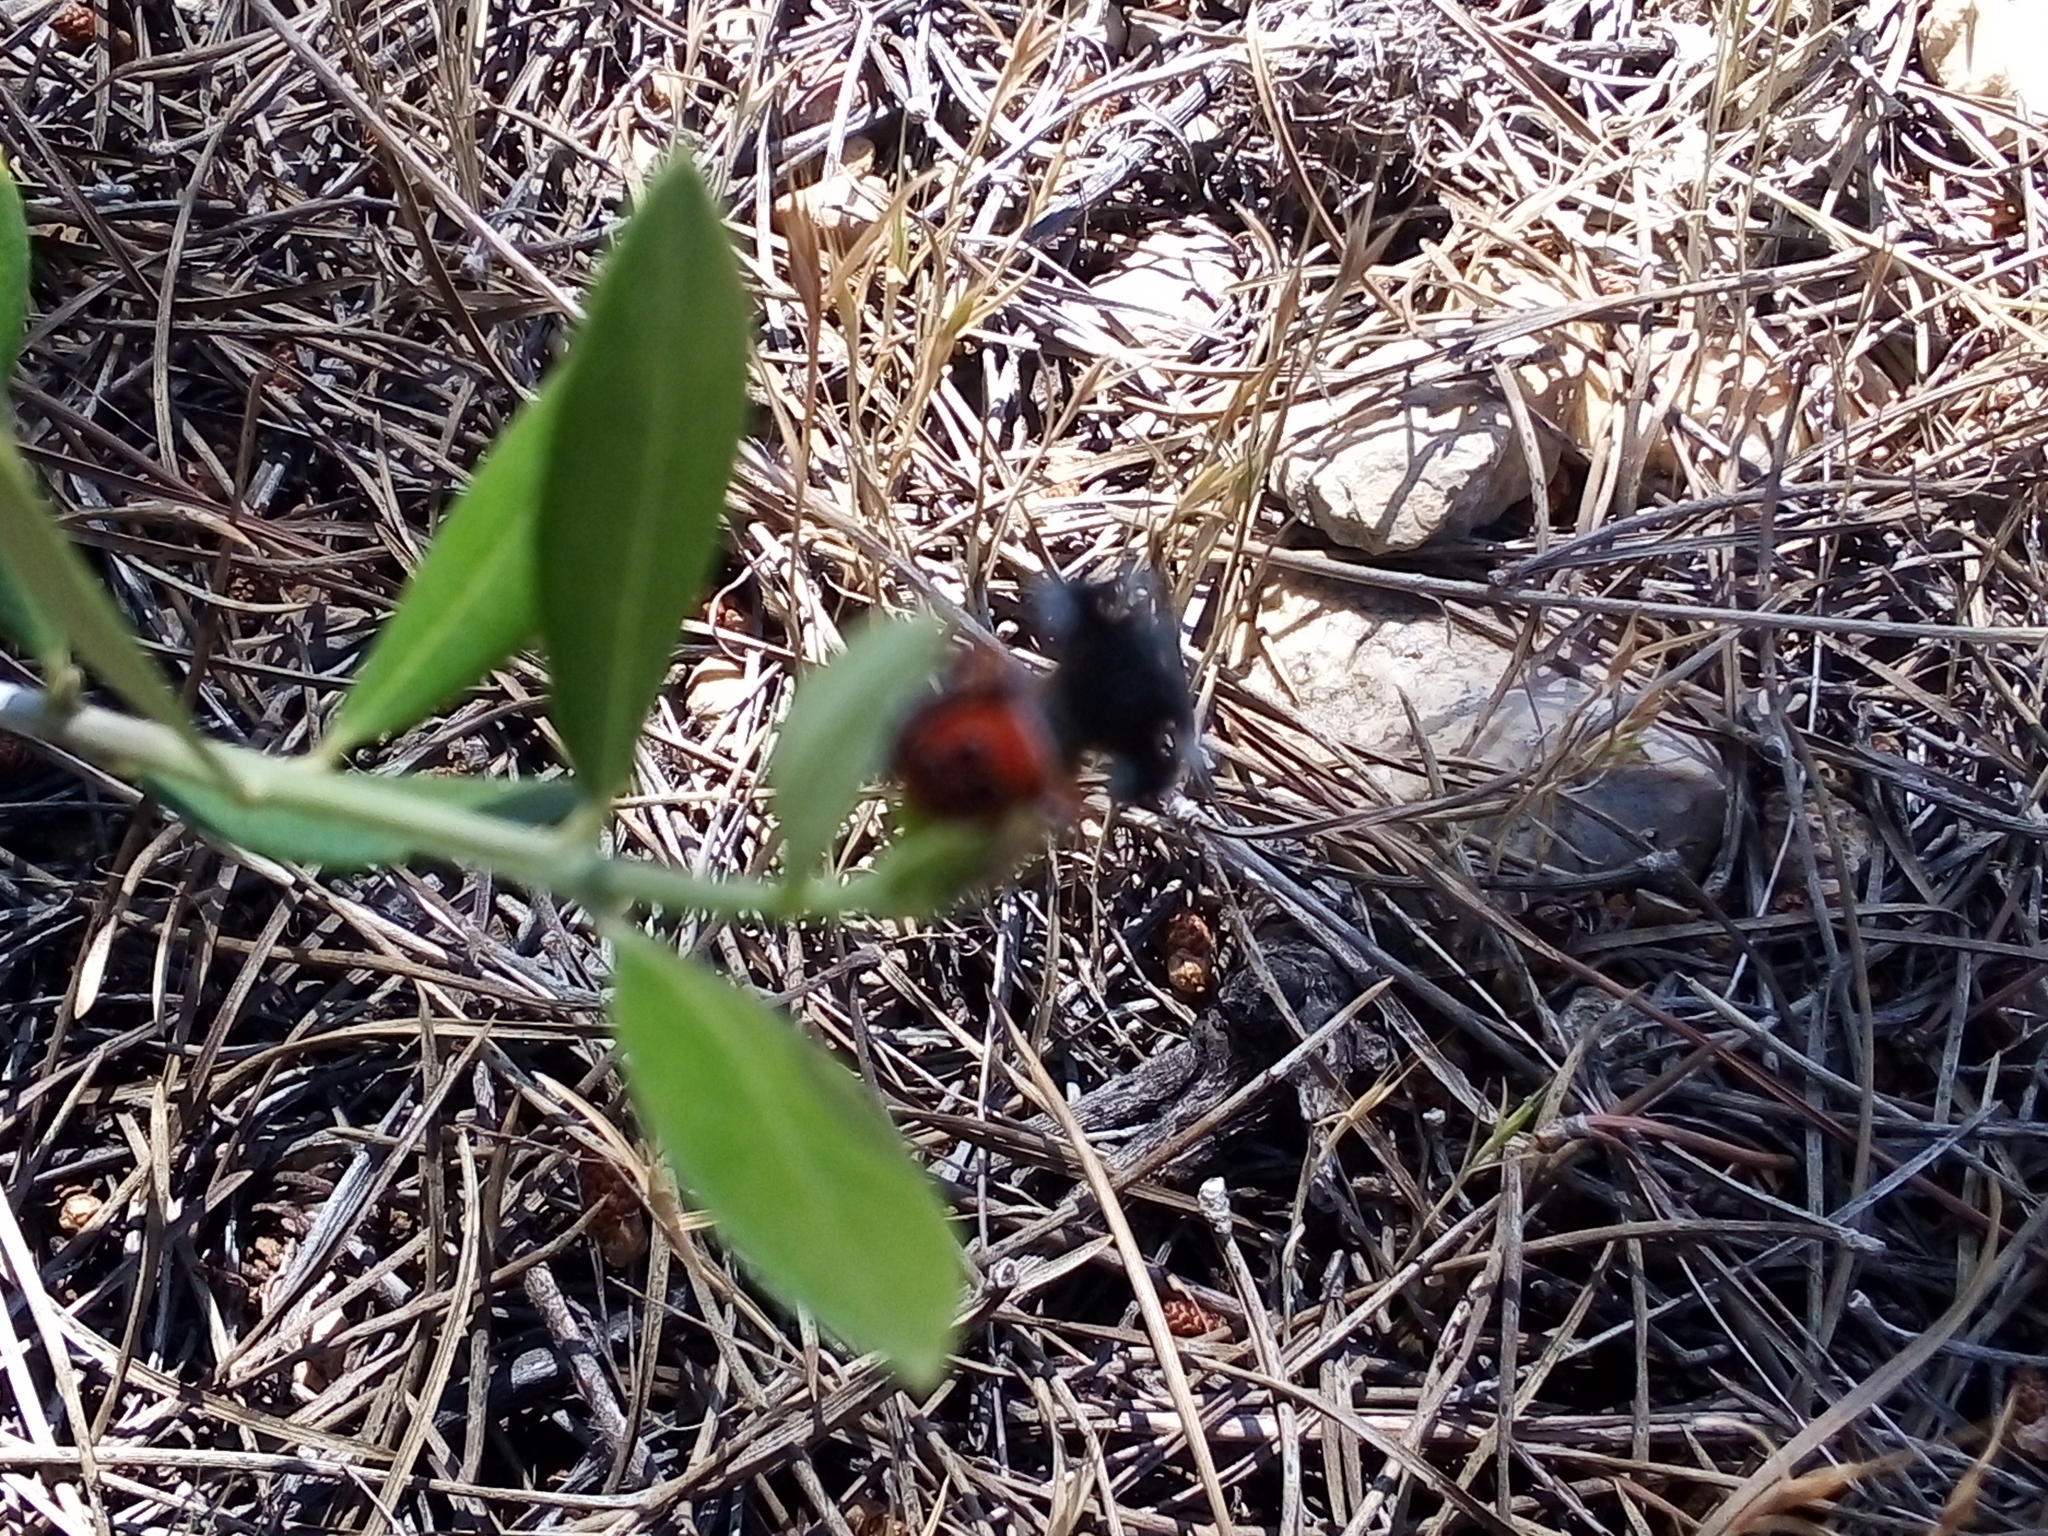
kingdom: Animalia
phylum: Arthropoda
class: Arachnida
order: Araneae
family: Eresidae
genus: Eresus
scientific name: Eresus solitarius
